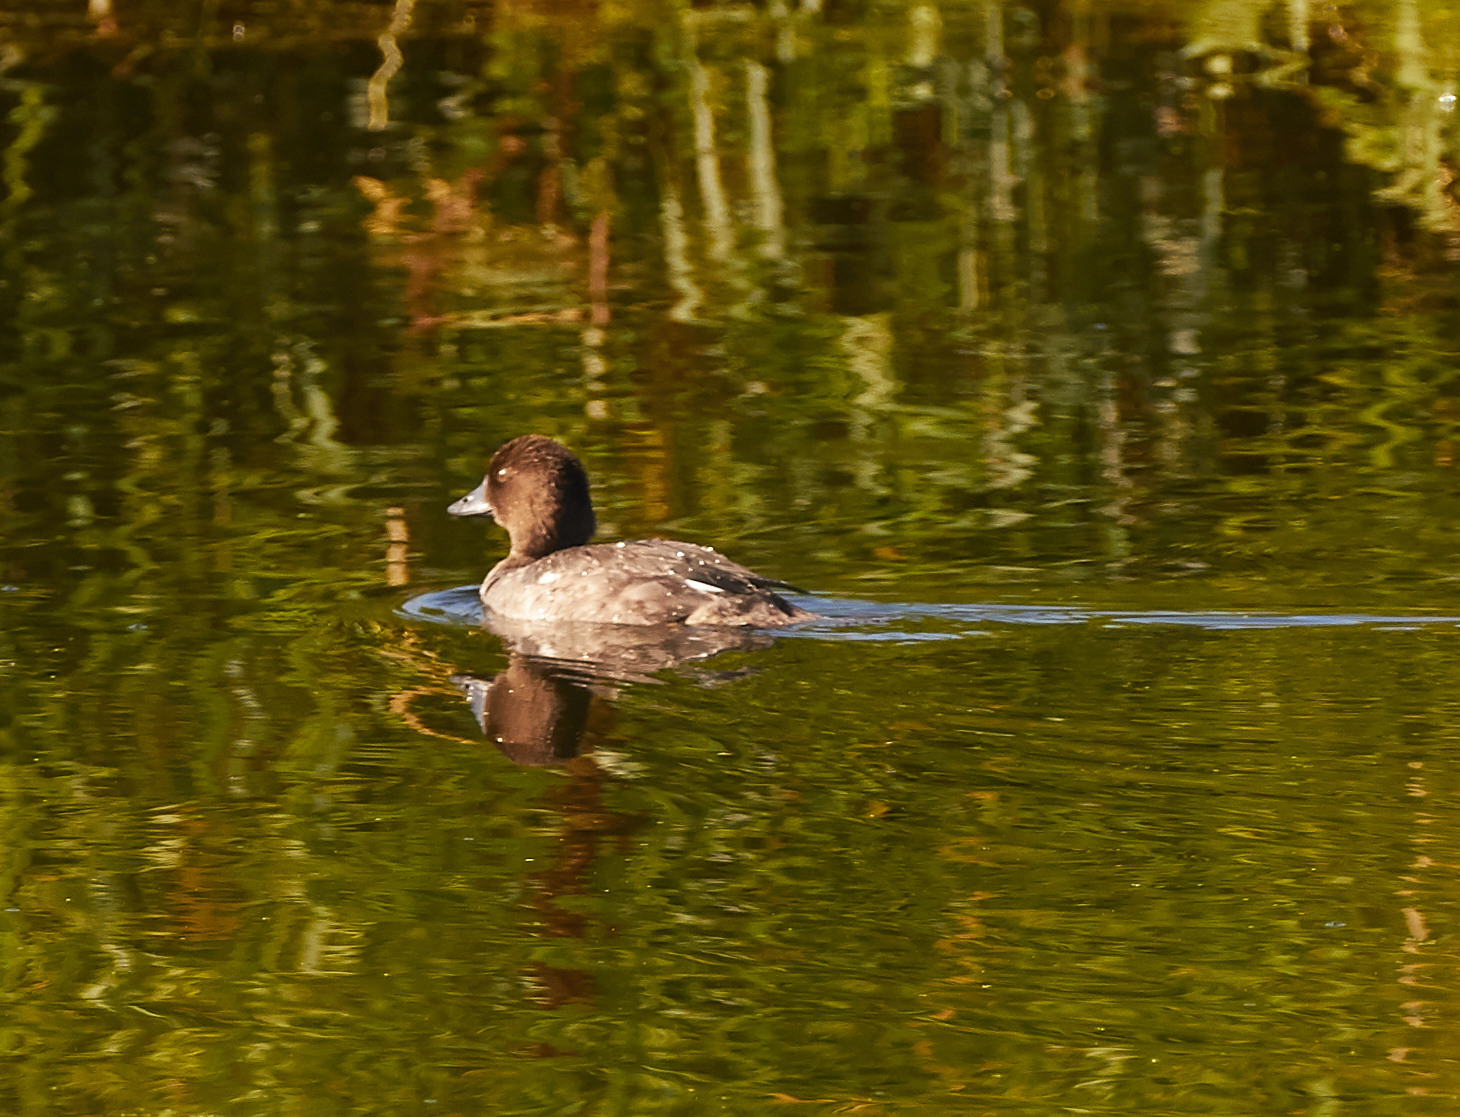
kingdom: Animalia
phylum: Chordata
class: Aves
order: Anseriformes
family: Anatidae
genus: Bucephala
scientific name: Bucephala clangula
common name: Common goldeneye
